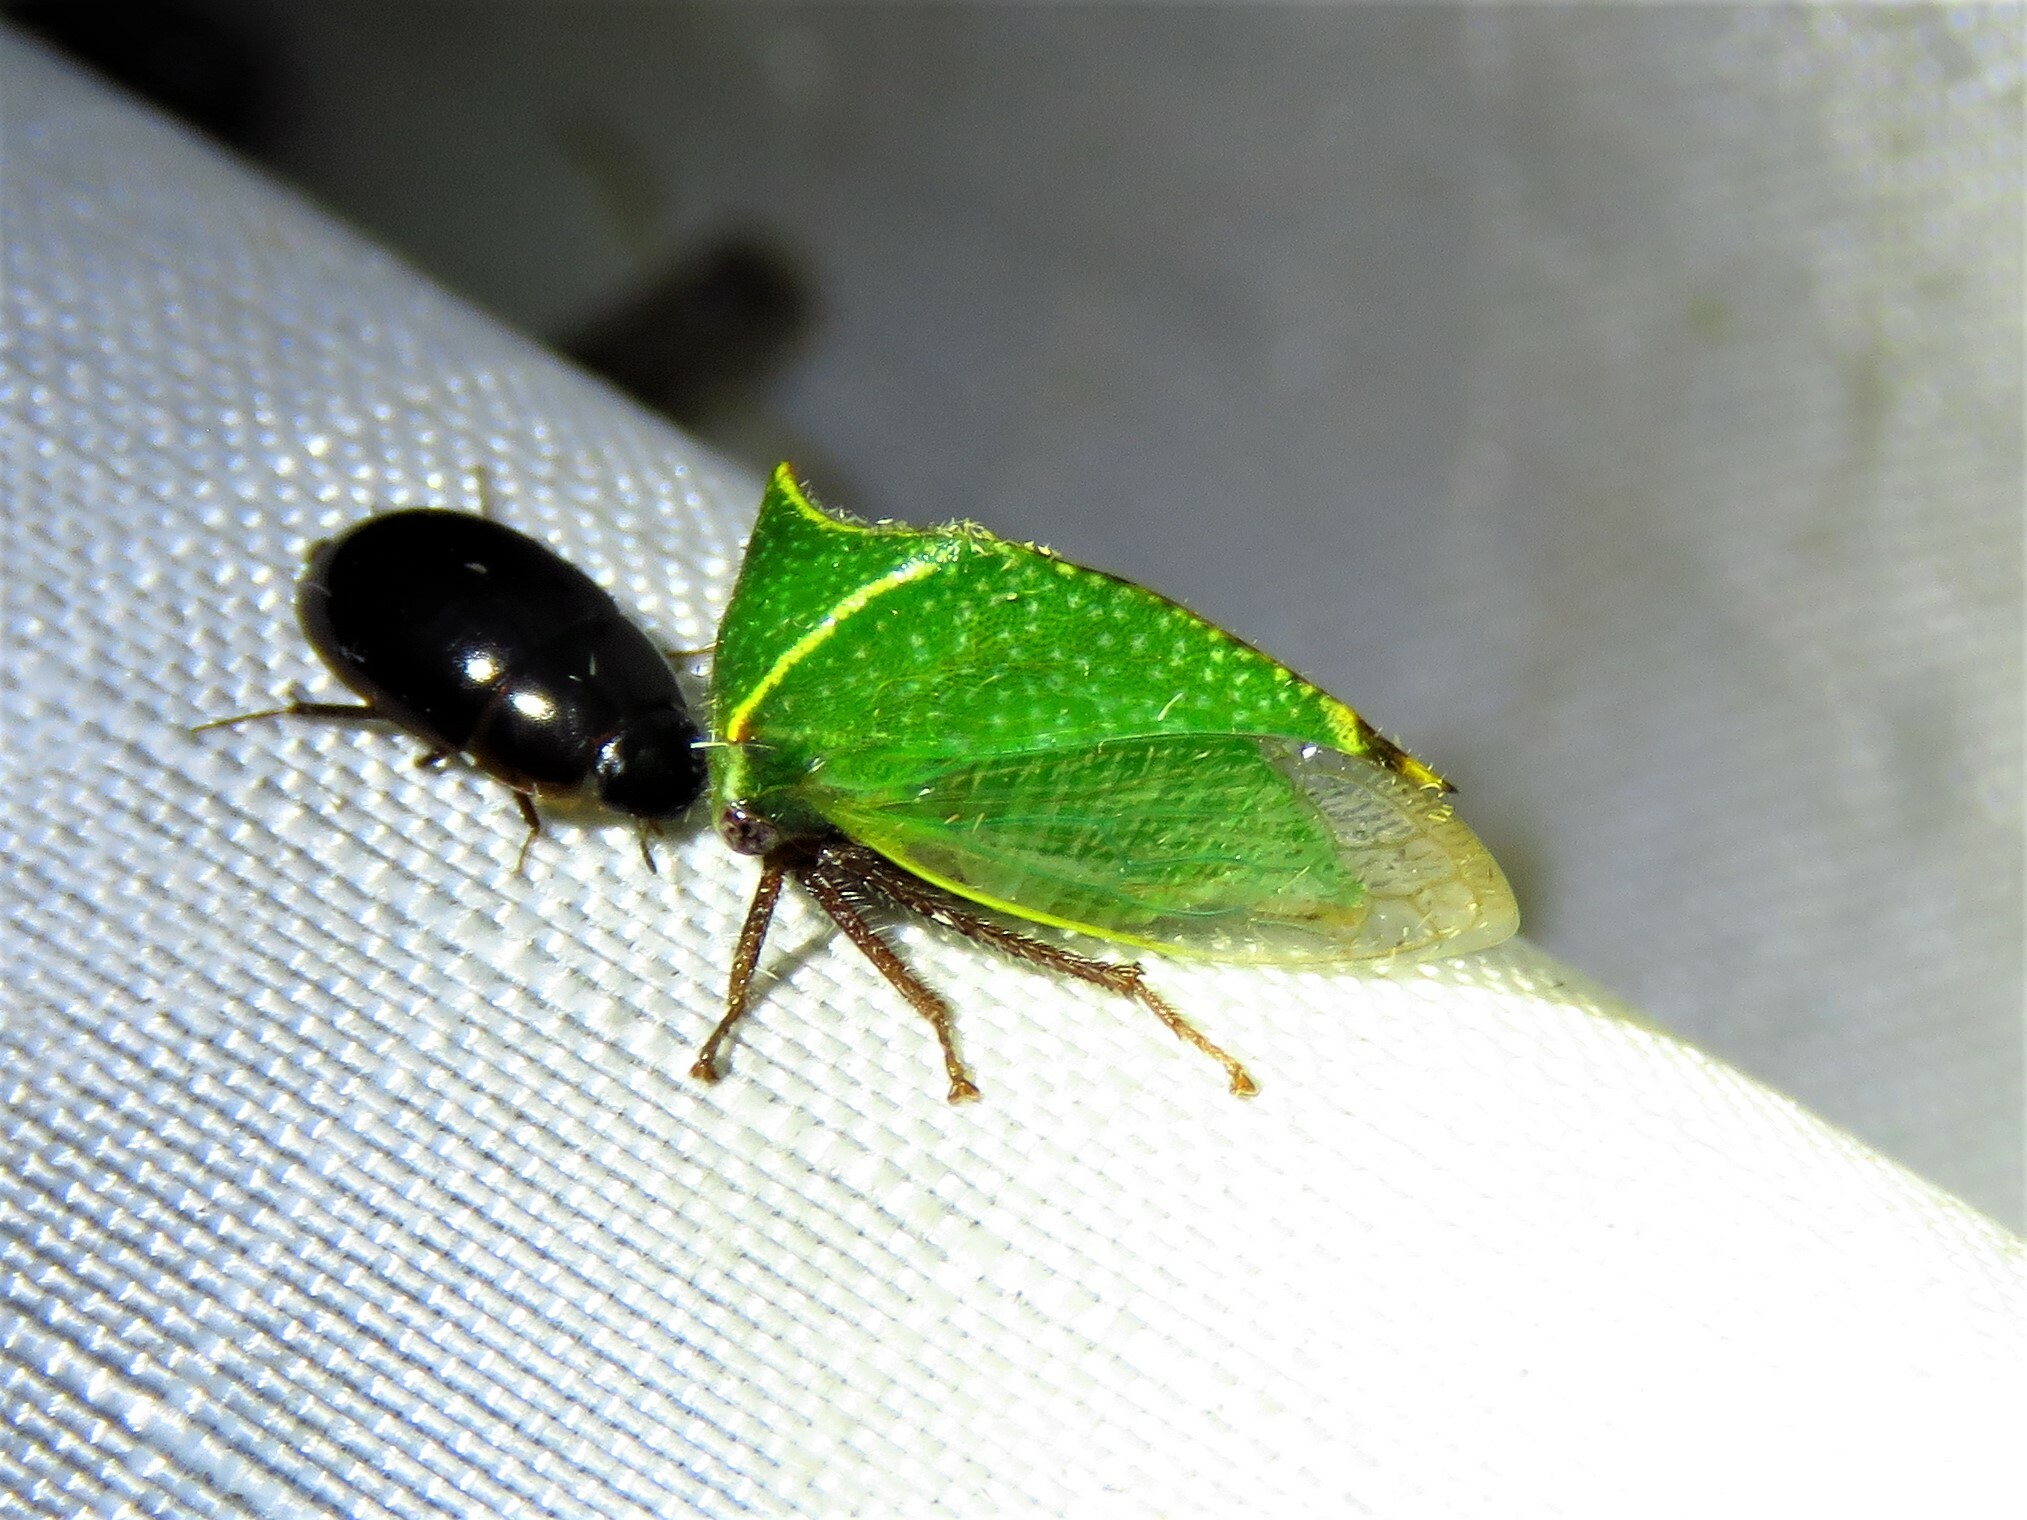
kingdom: Animalia
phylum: Arthropoda
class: Insecta
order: Hemiptera
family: Membracidae
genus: Tortistilus
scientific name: Tortistilus abnorma
